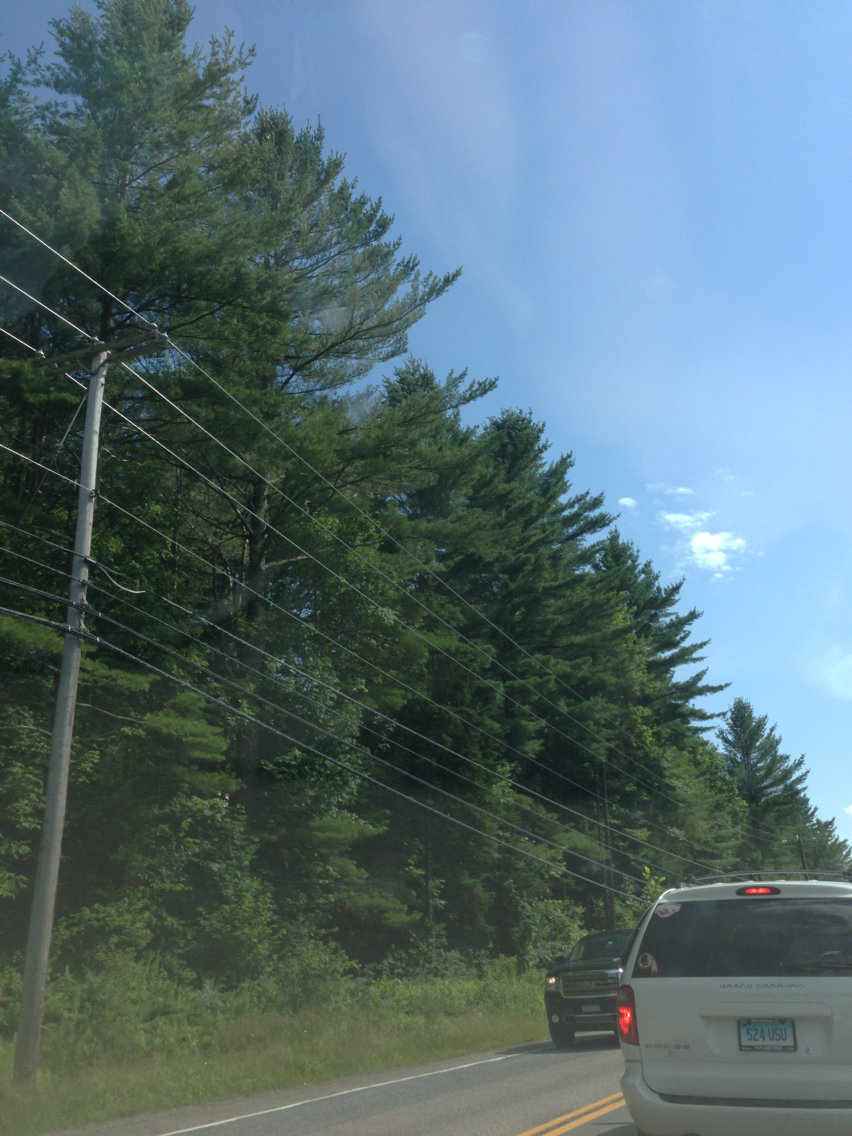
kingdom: Plantae
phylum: Tracheophyta
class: Pinopsida
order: Pinales
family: Pinaceae
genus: Pinus
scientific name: Pinus strobus
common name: Weymouth pine
